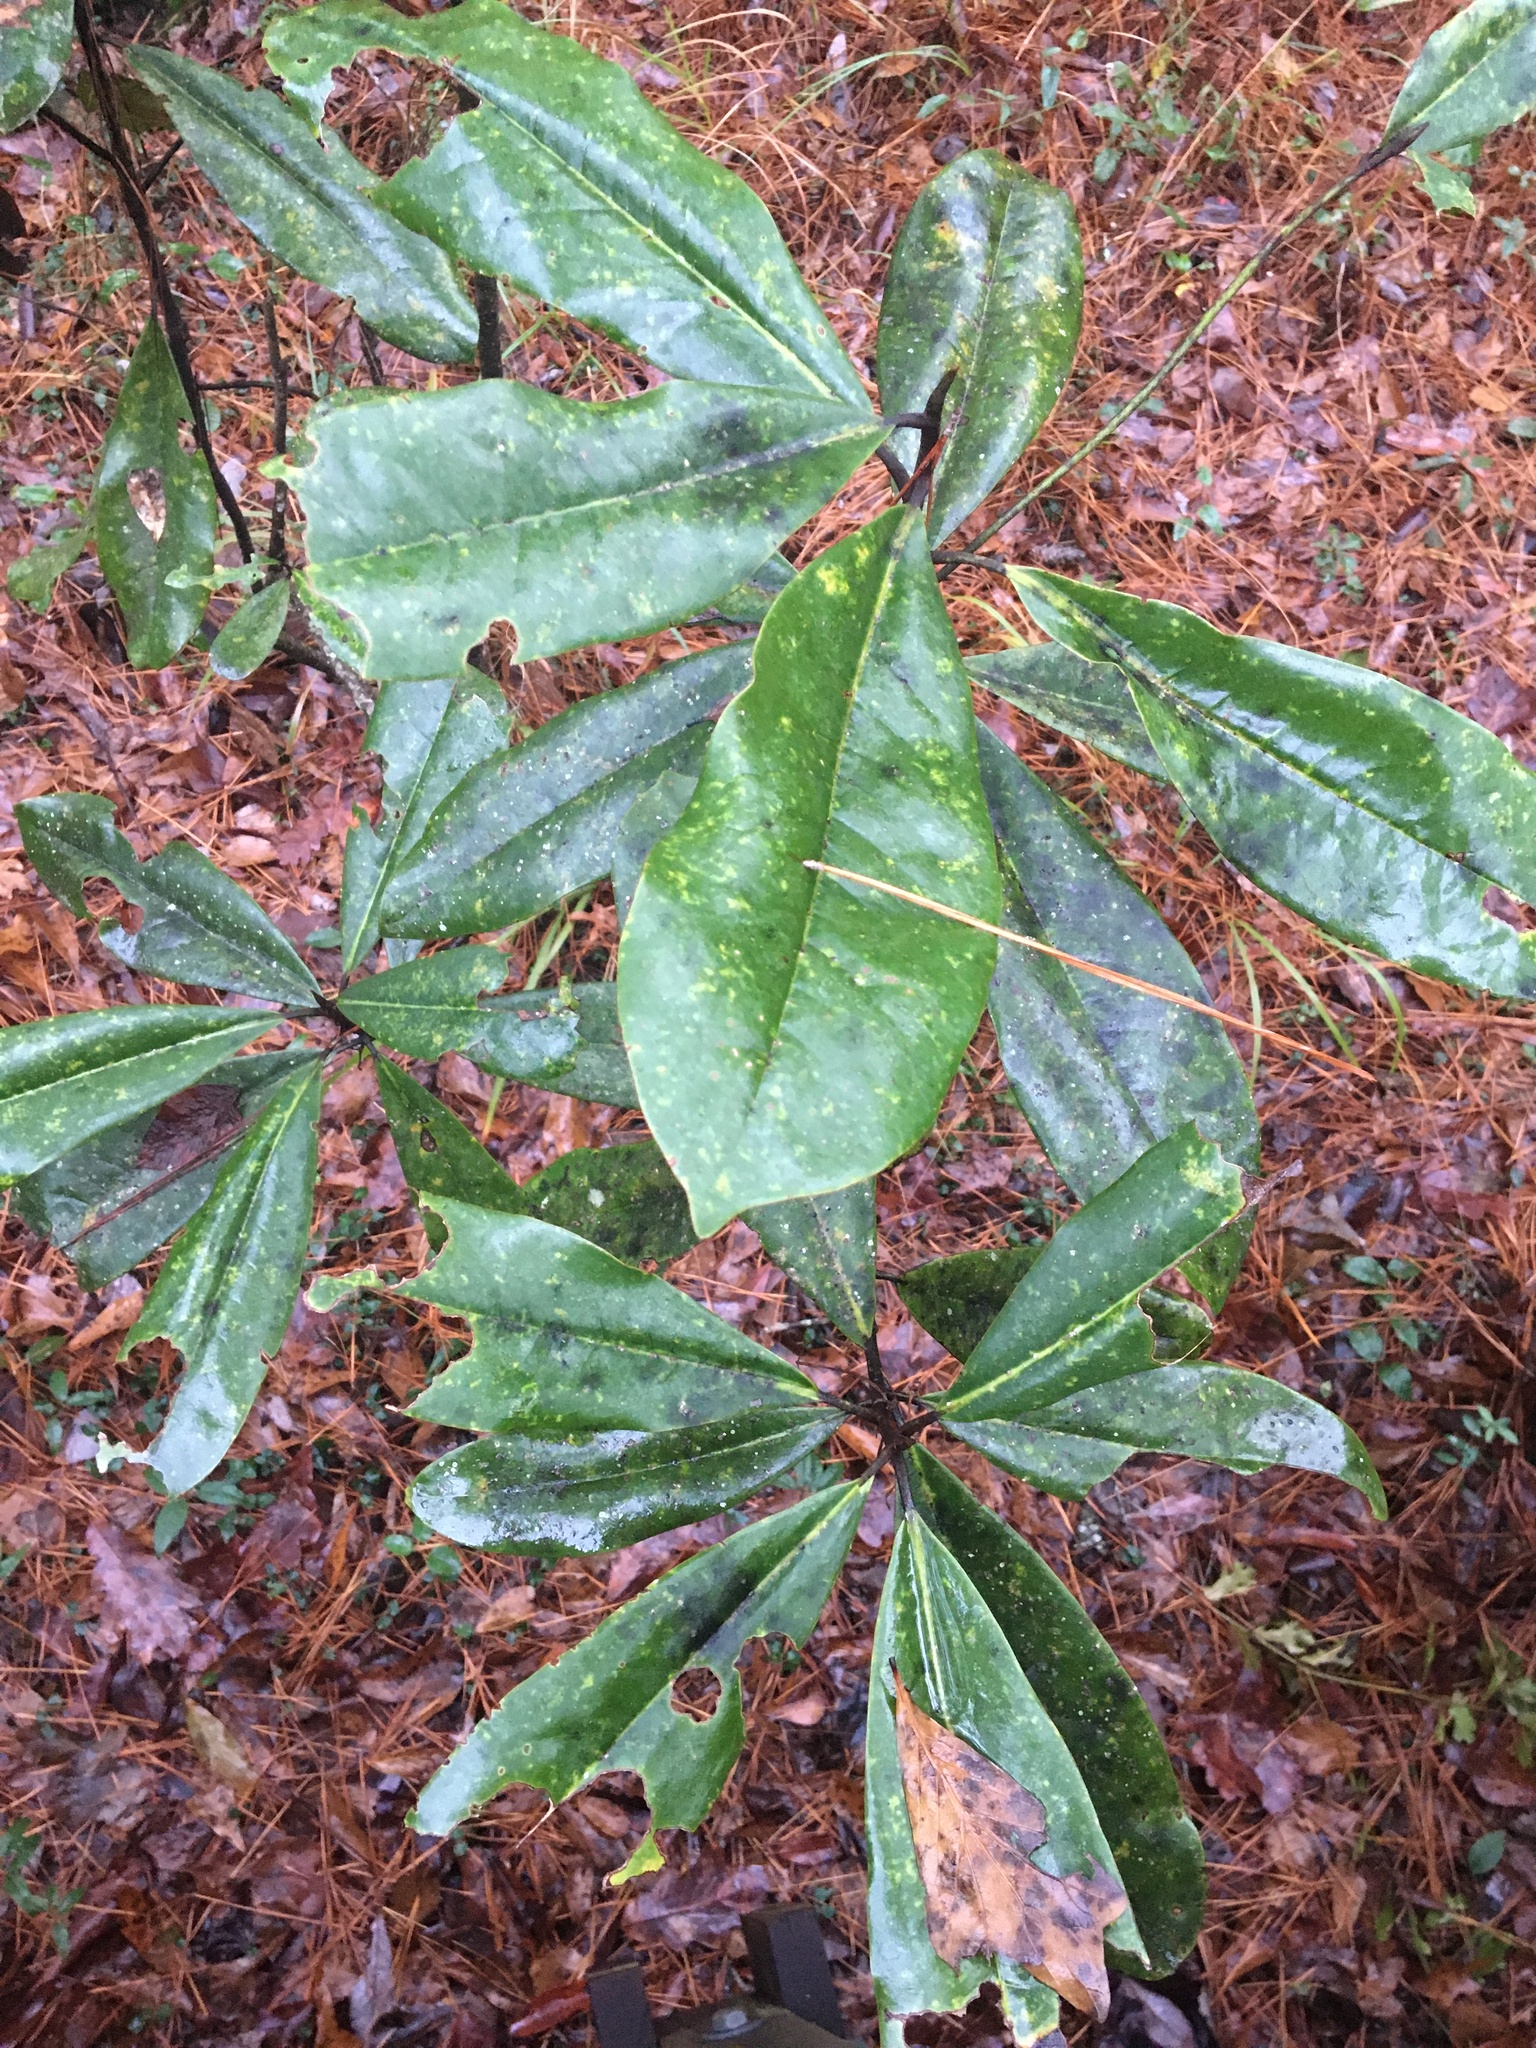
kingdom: Plantae
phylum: Tracheophyta
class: Magnoliopsida
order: Magnoliales
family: Magnoliaceae
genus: Magnolia
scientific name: Magnolia grandiflora
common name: Southern magnolia
